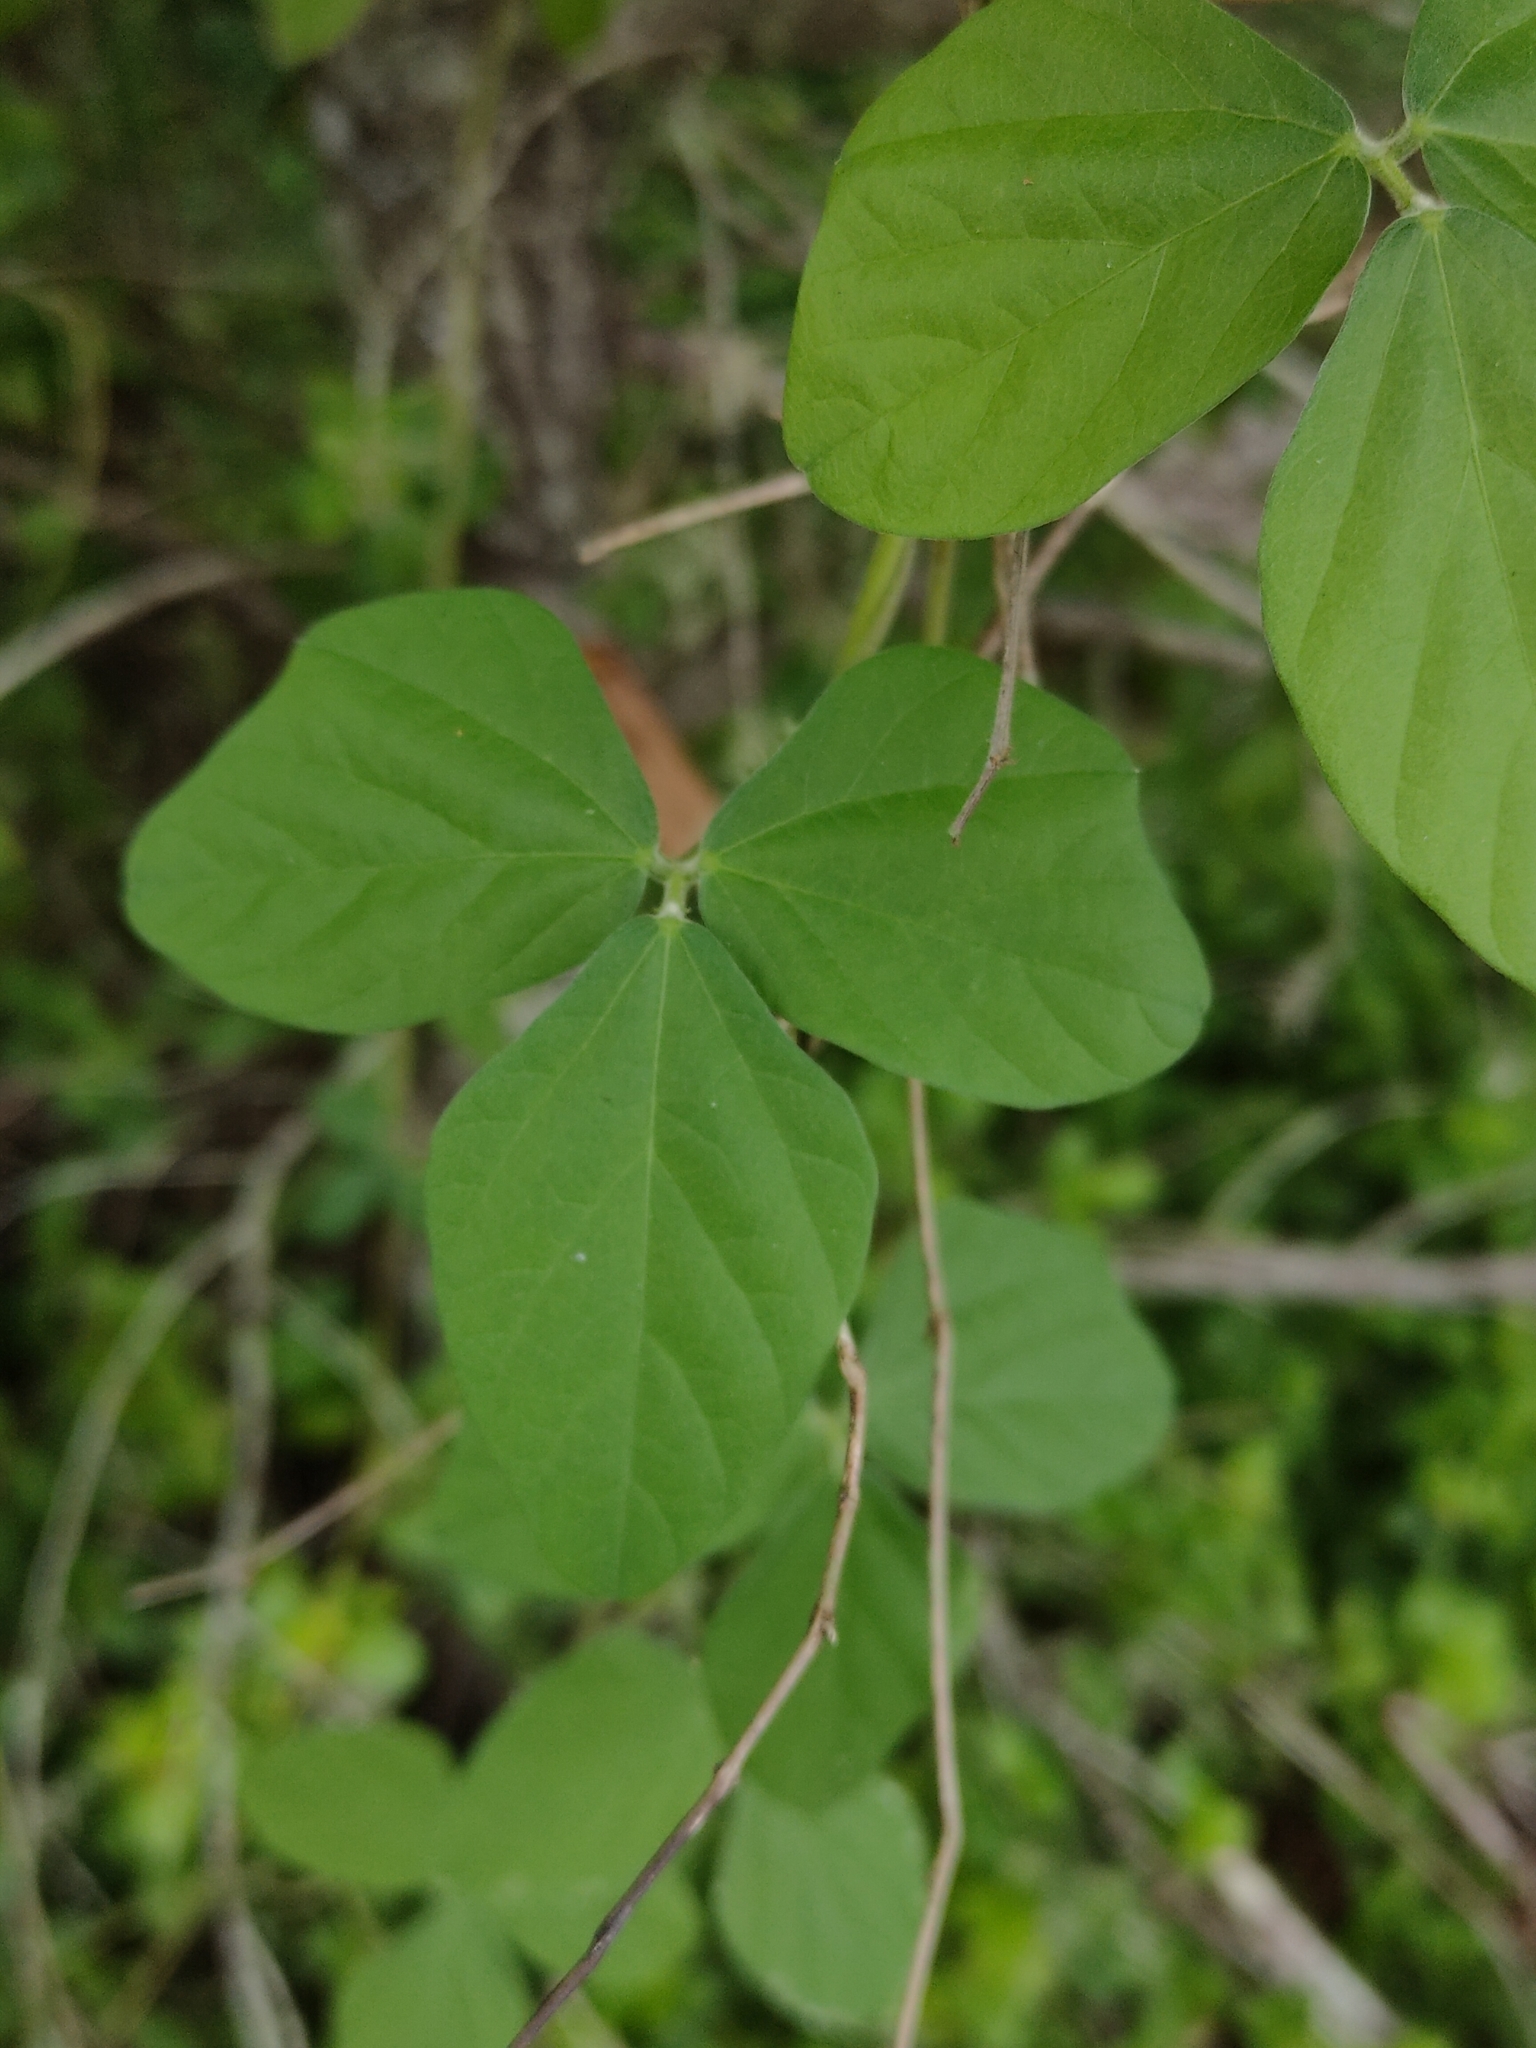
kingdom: Plantae
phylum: Tracheophyta
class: Magnoliopsida
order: Fabales
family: Fabaceae
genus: Macroptilium
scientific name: Macroptilium atropurpureum
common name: Purple bushbean
